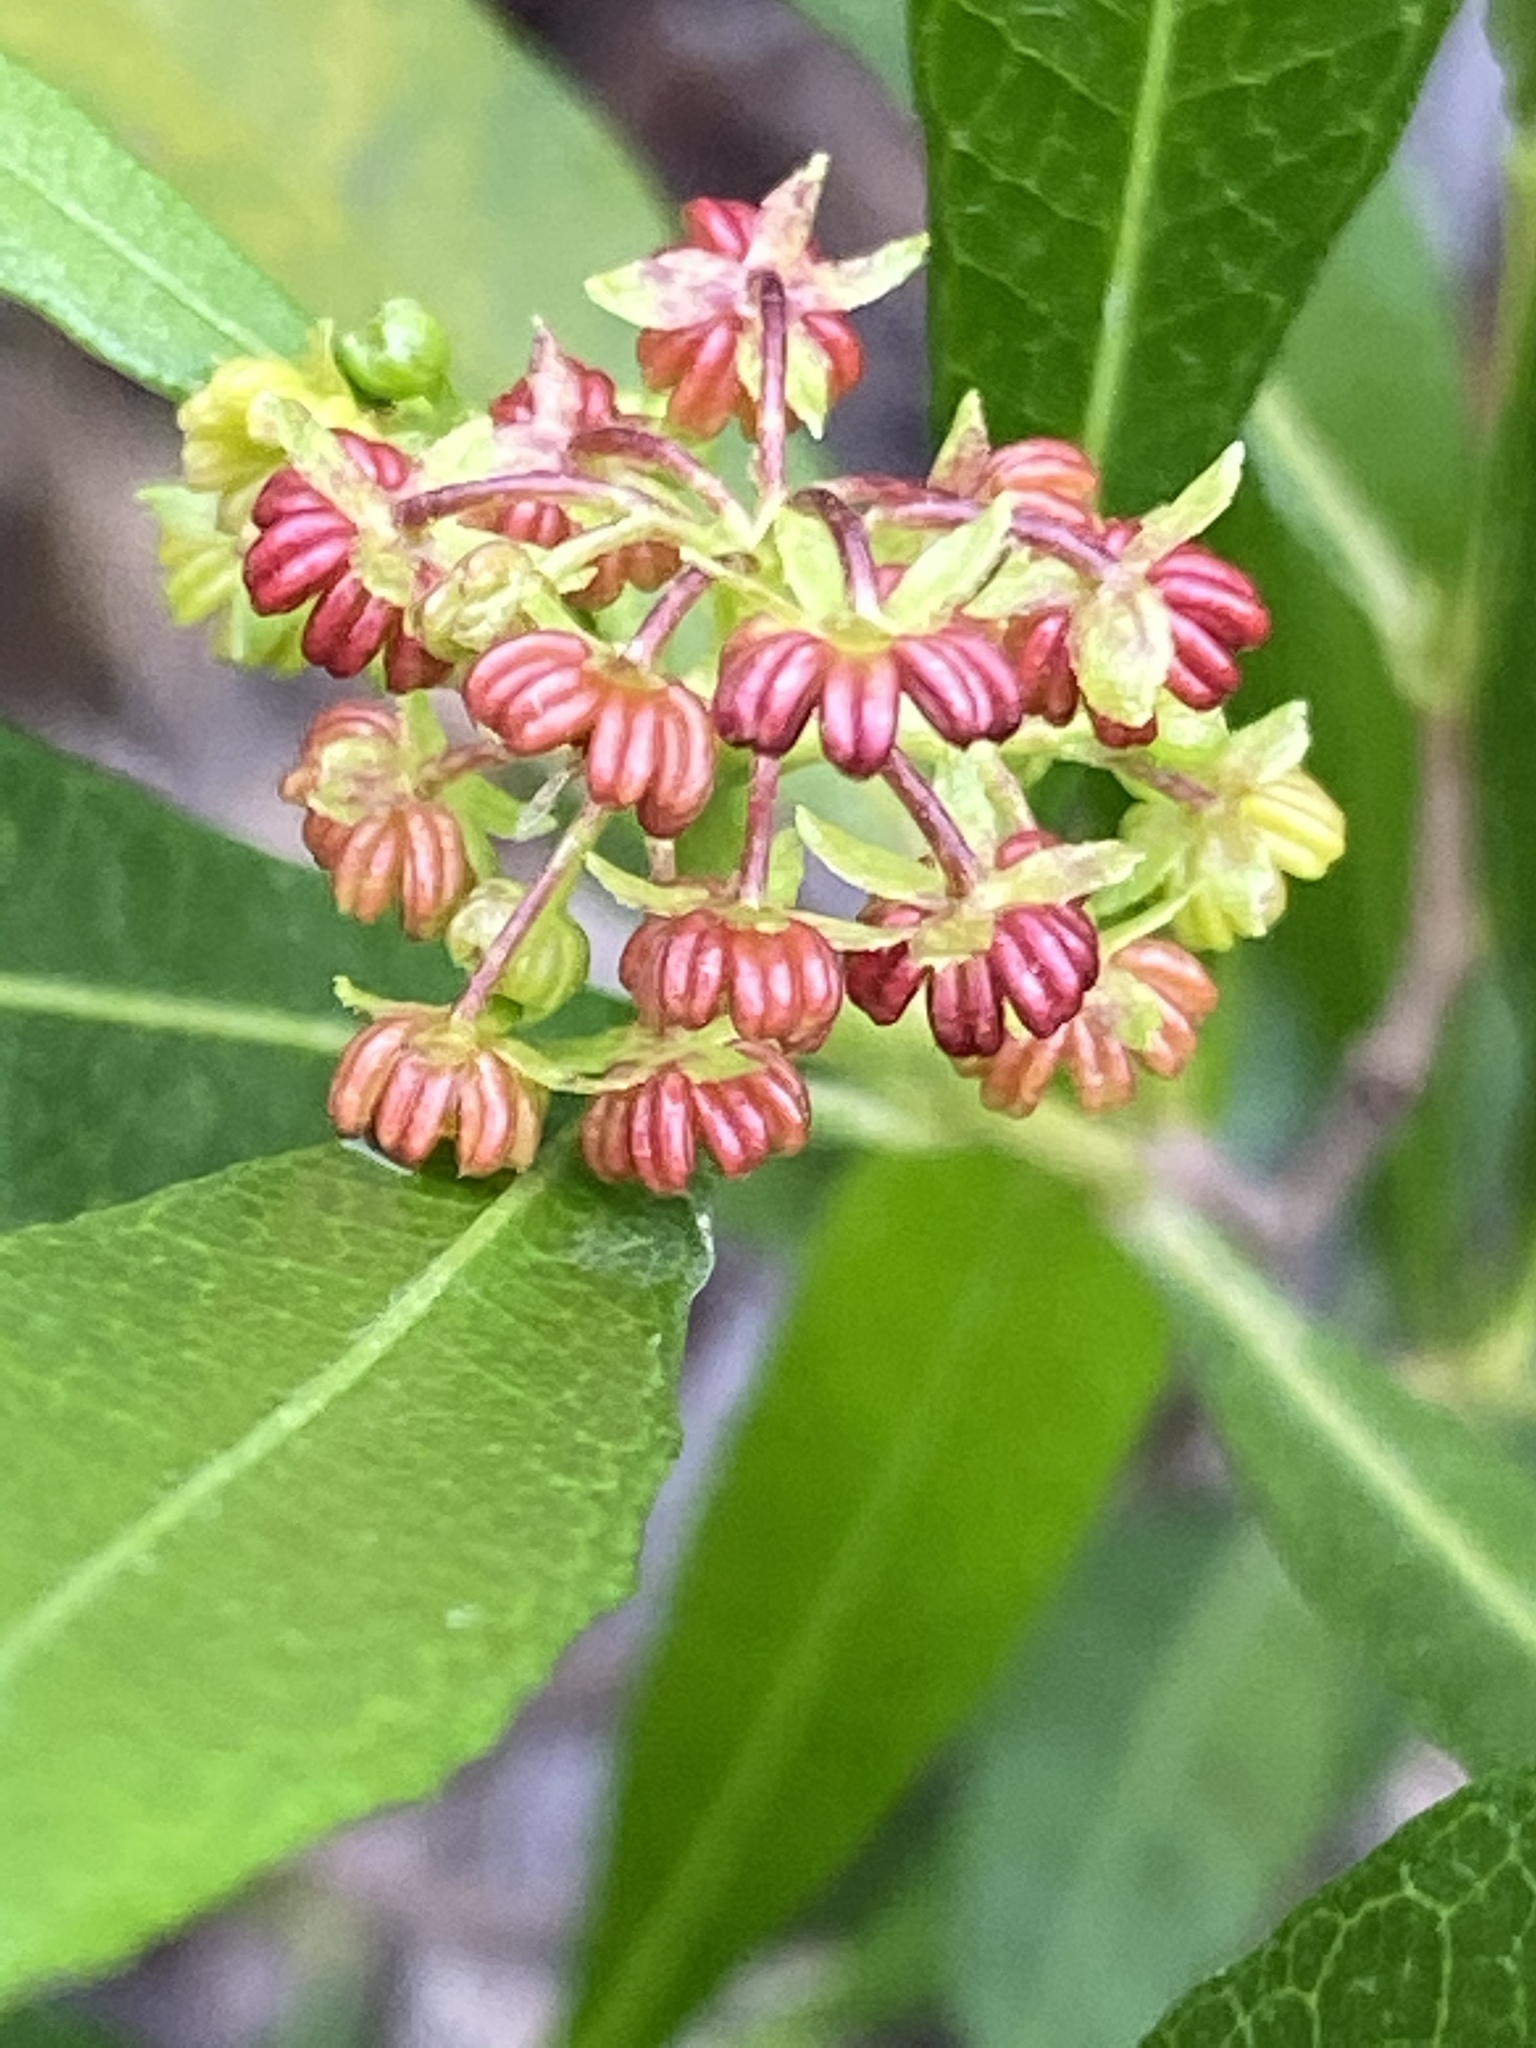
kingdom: Plantae
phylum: Tracheophyta
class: Magnoliopsida
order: Sapindales
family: Sapindaceae
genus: Dodonaea
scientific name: Dodonaea viscosa
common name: Hopbush
